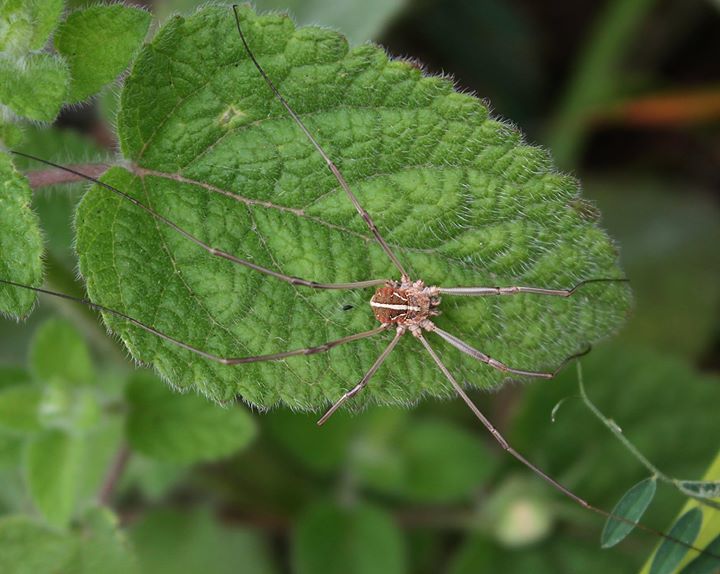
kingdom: Animalia
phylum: Arthropoda
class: Arachnida
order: Opiliones
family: Phalangiidae
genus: Metaphalangium
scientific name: Metaphalangium cirtanum
